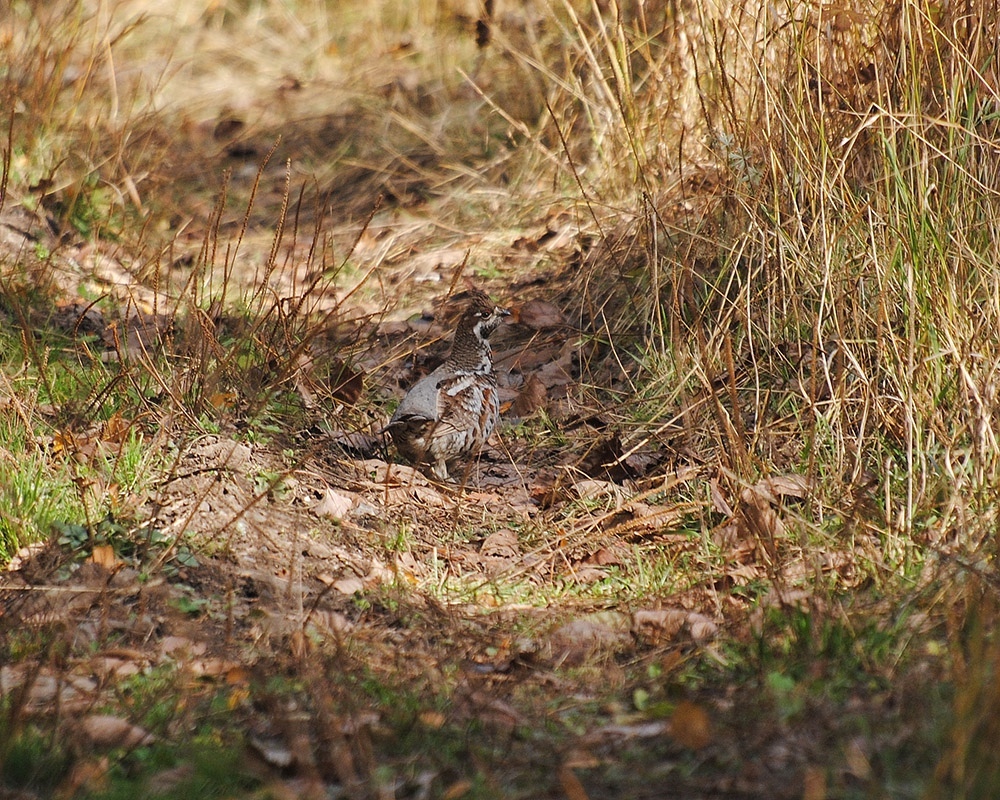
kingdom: Animalia
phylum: Chordata
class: Aves
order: Galliformes
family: Phasianidae
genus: Tetrastes
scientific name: Tetrastes bonasia
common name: Hazel grouse
